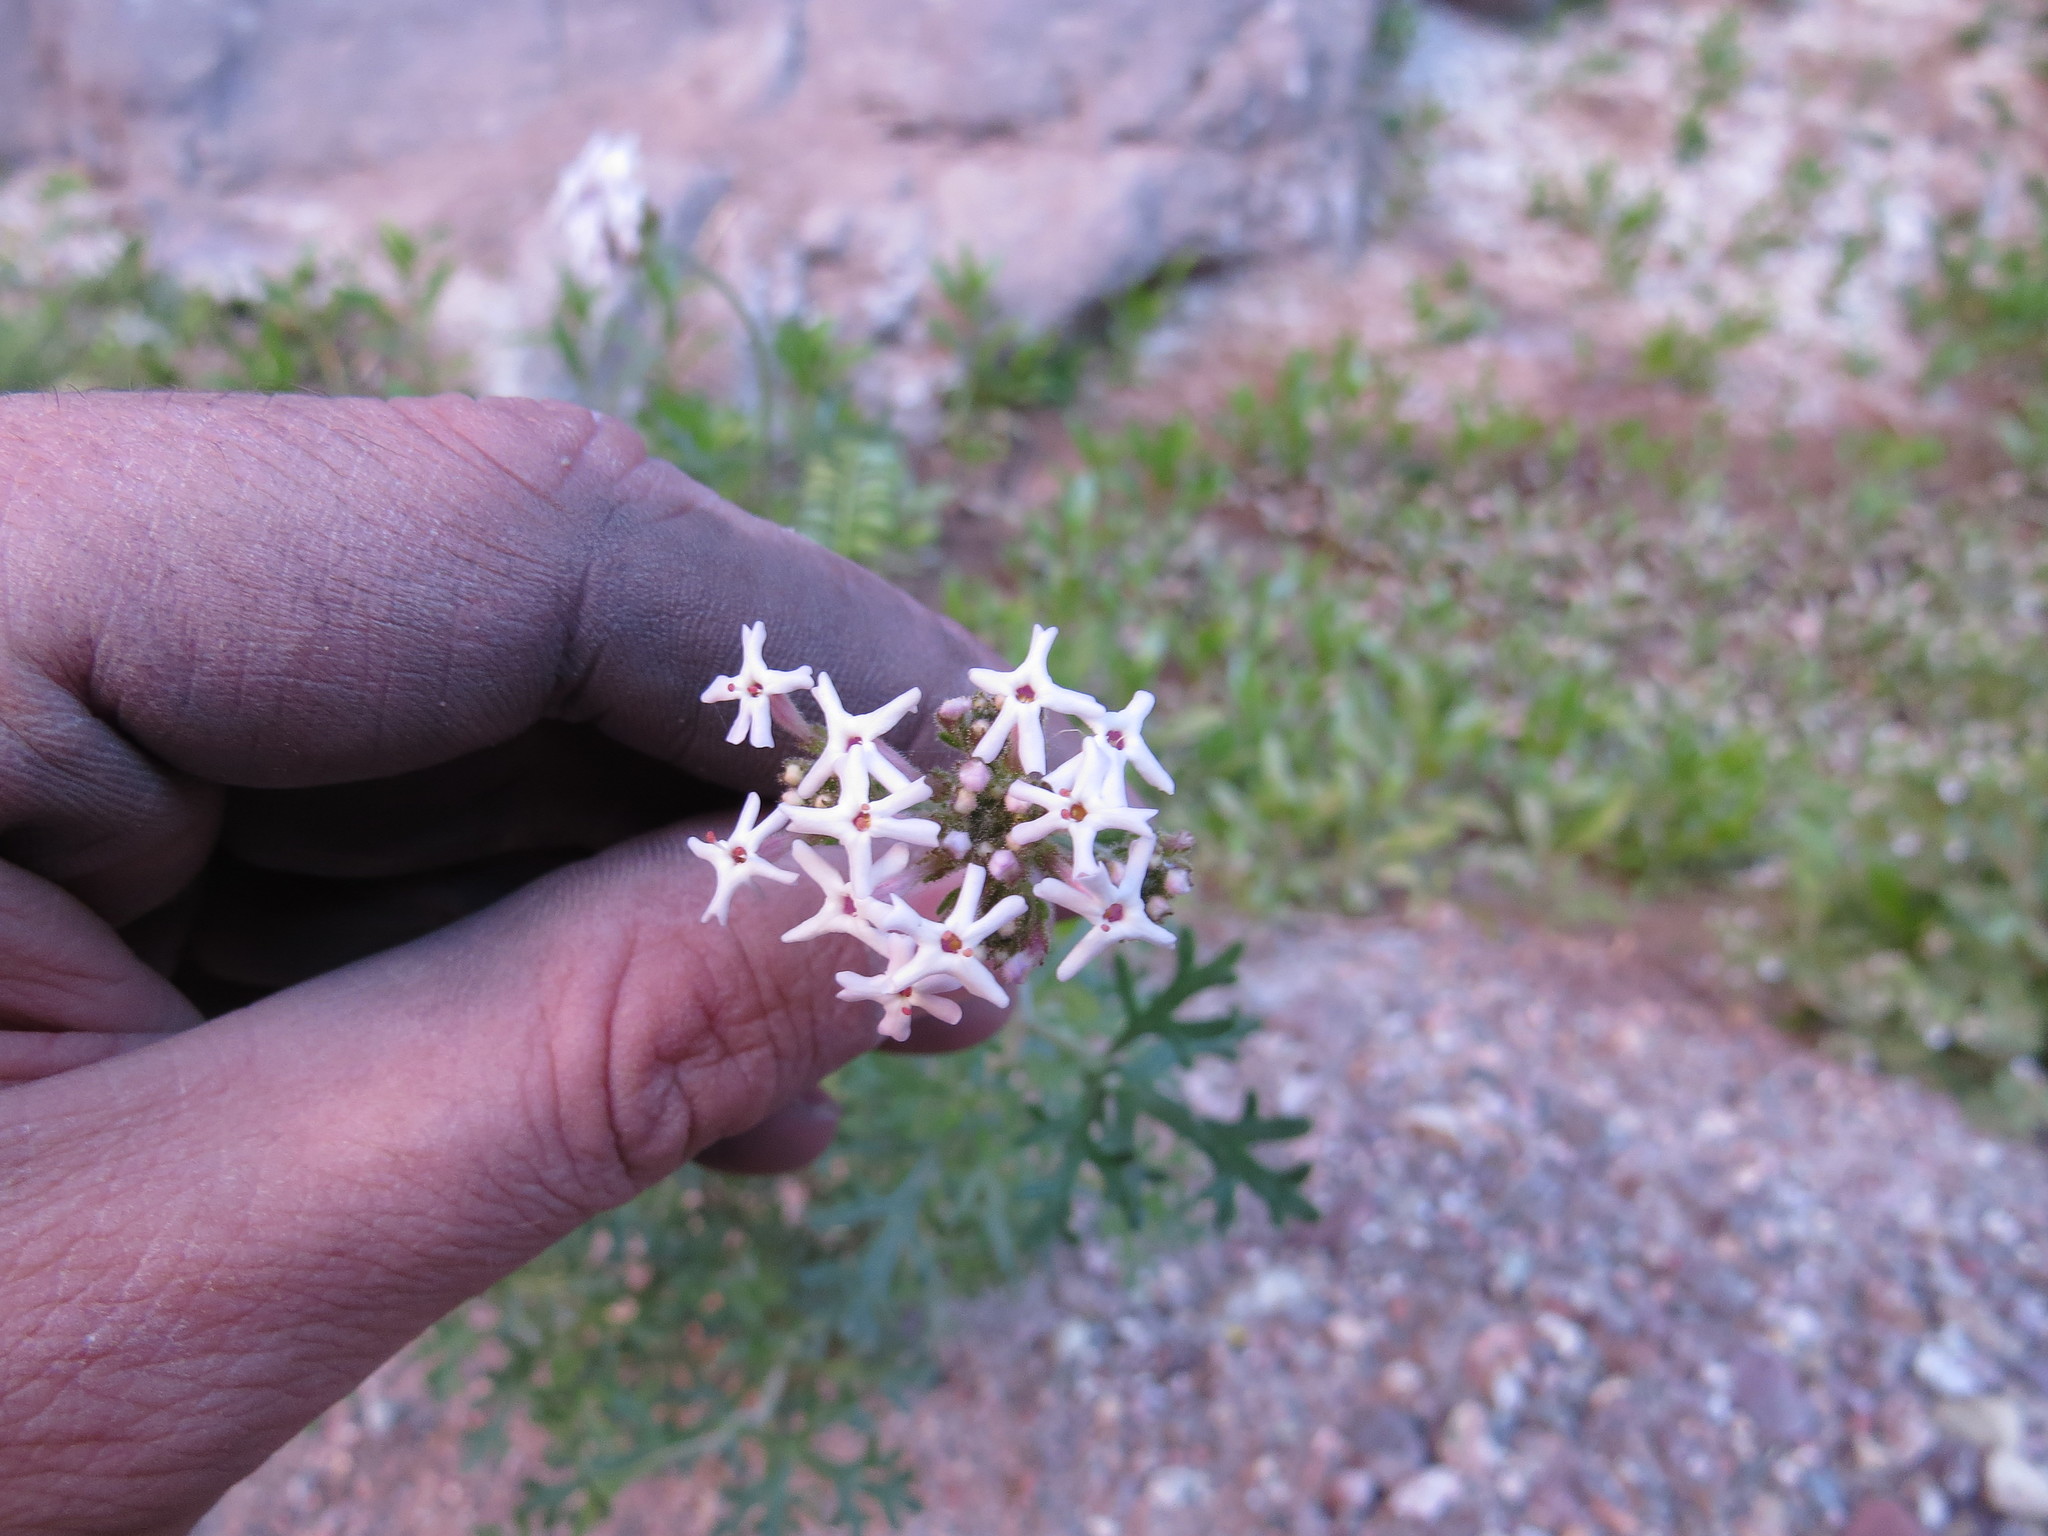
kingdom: Plantae
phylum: Tracheophyta
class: Magnoliopsida
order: Lamiales
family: Verbenaceae
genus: Junellia
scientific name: Junellia crithmifolia
